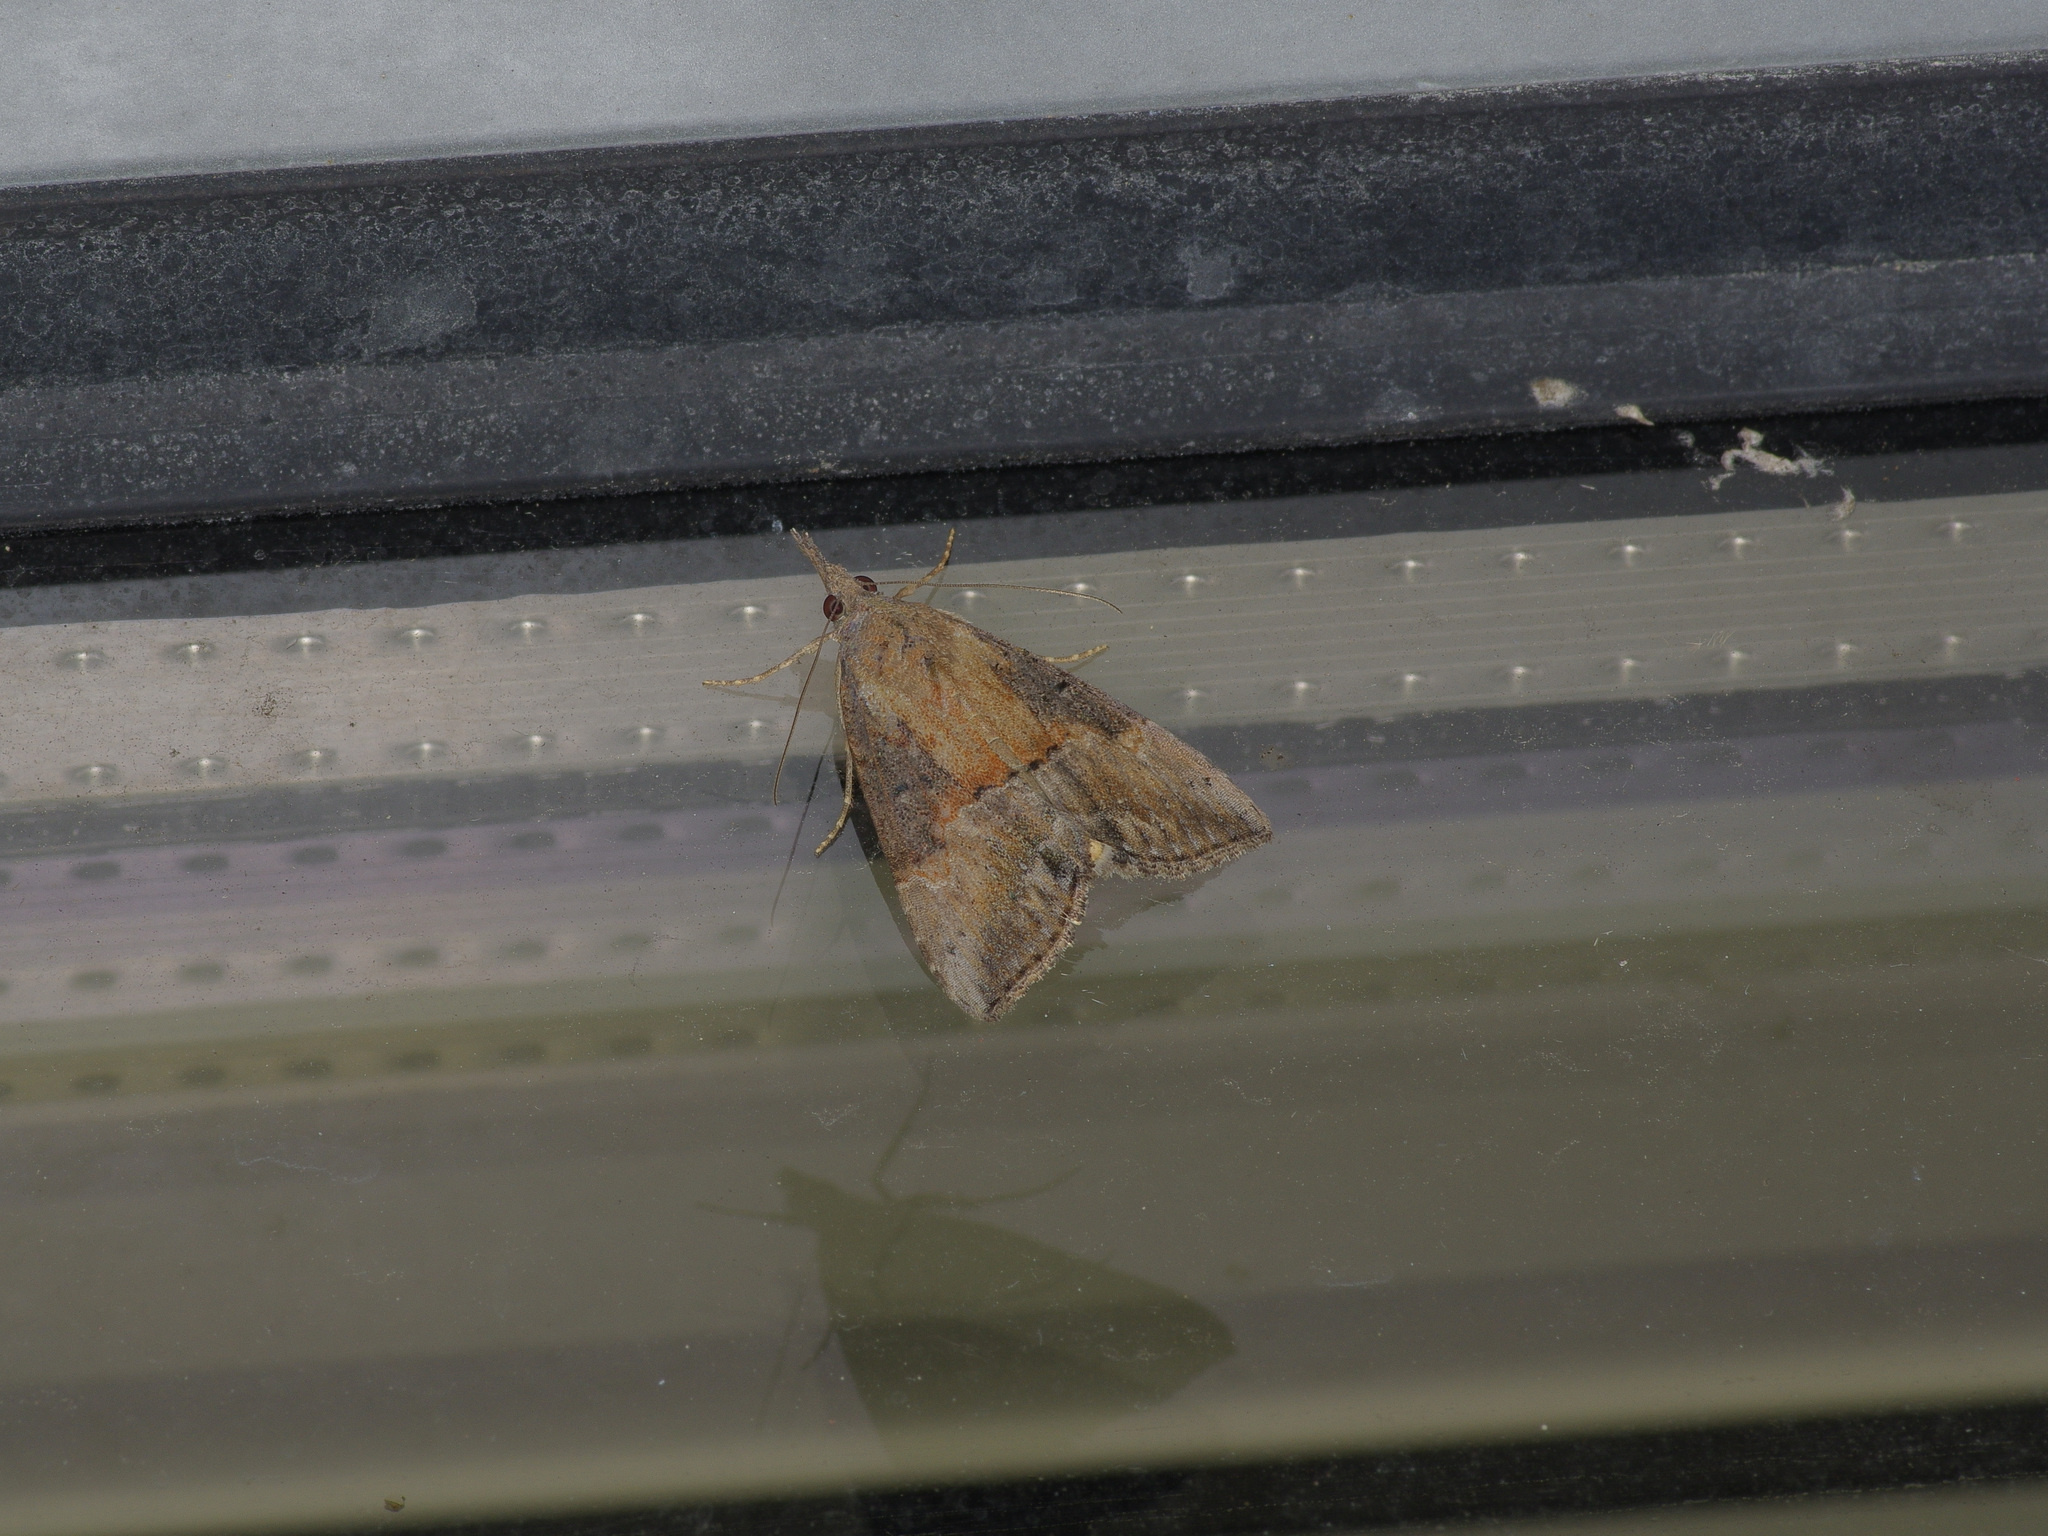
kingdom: Animalia
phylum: Arthropoda
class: Insecta
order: Lepidoptera
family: Erebidae
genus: Hypena
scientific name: Hypena scabra
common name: Green cloverworm
